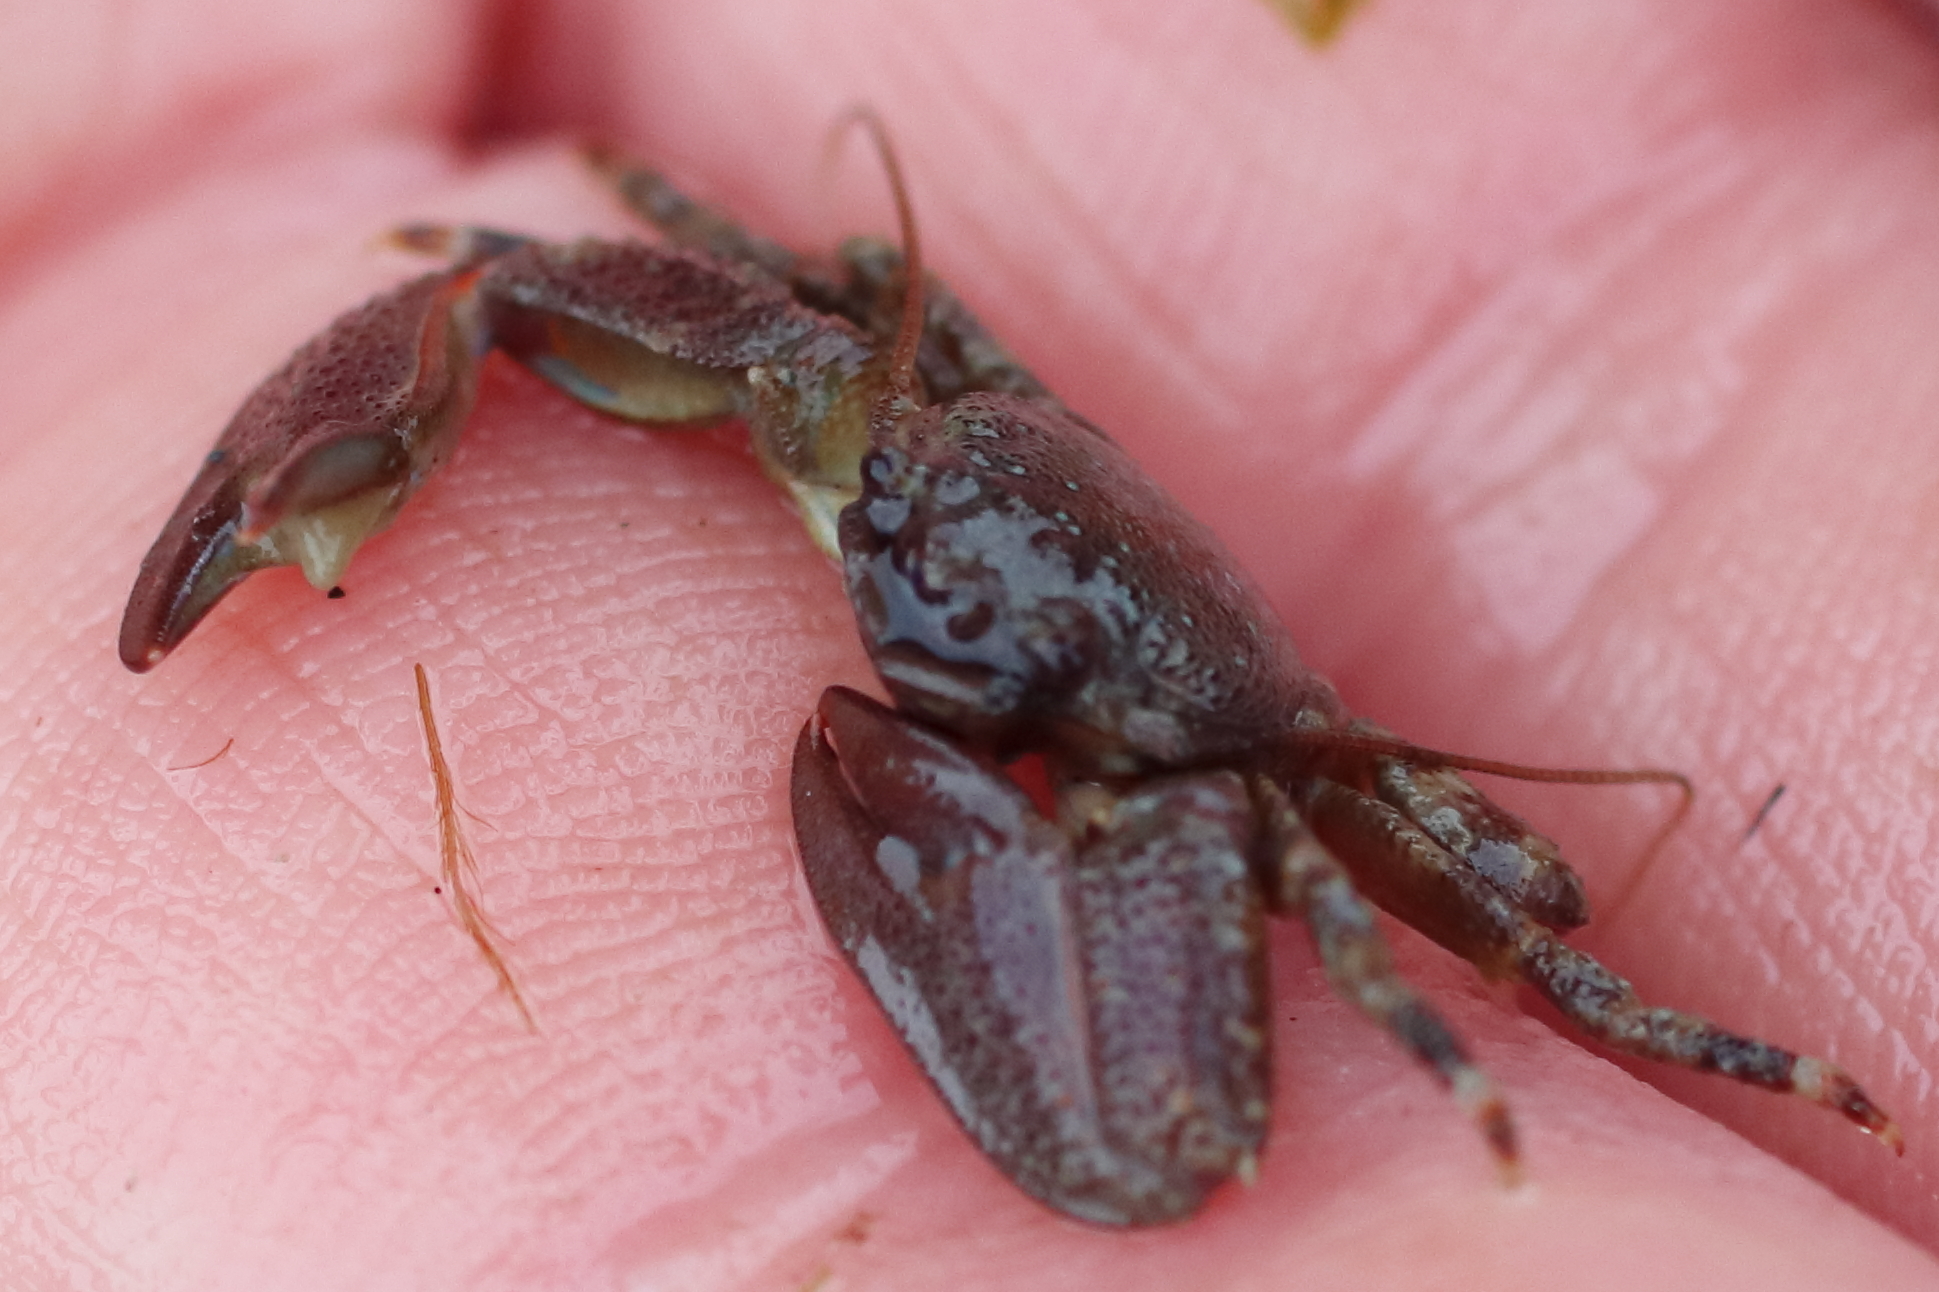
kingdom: Animalia
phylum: Arthropoda
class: Malacostraca
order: Decapoda
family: Porcellanidae
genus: Petrolisthes
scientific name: Petrolisthes eriomerus
